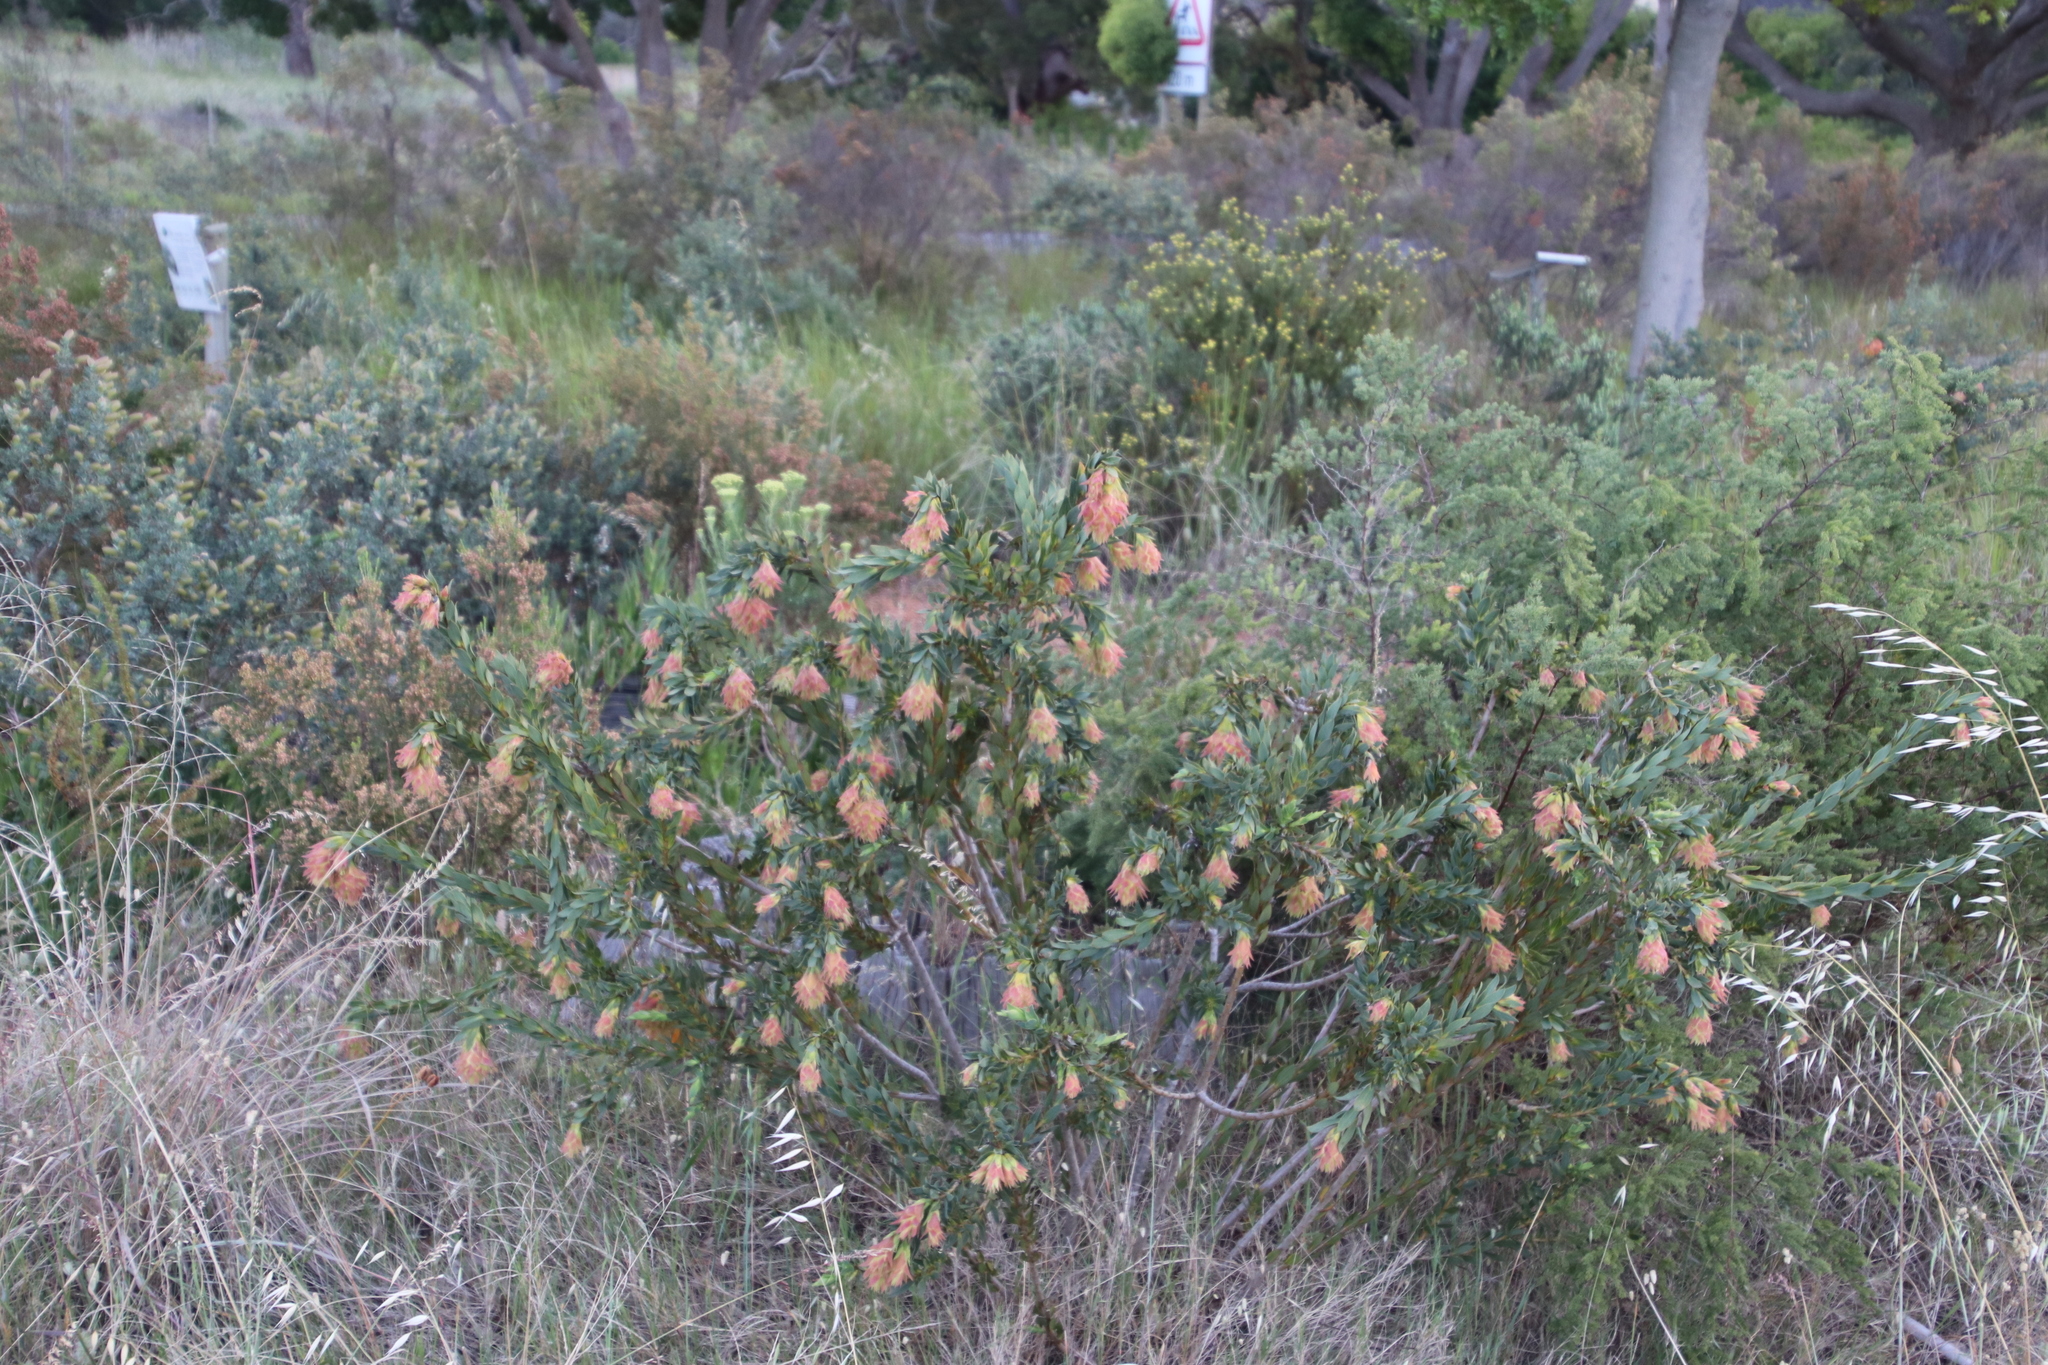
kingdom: Plantae
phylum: Tracheophyta
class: Magnoliopsida
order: Fabales
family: Fabaceae
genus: Liparia
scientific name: Liparia splendens
